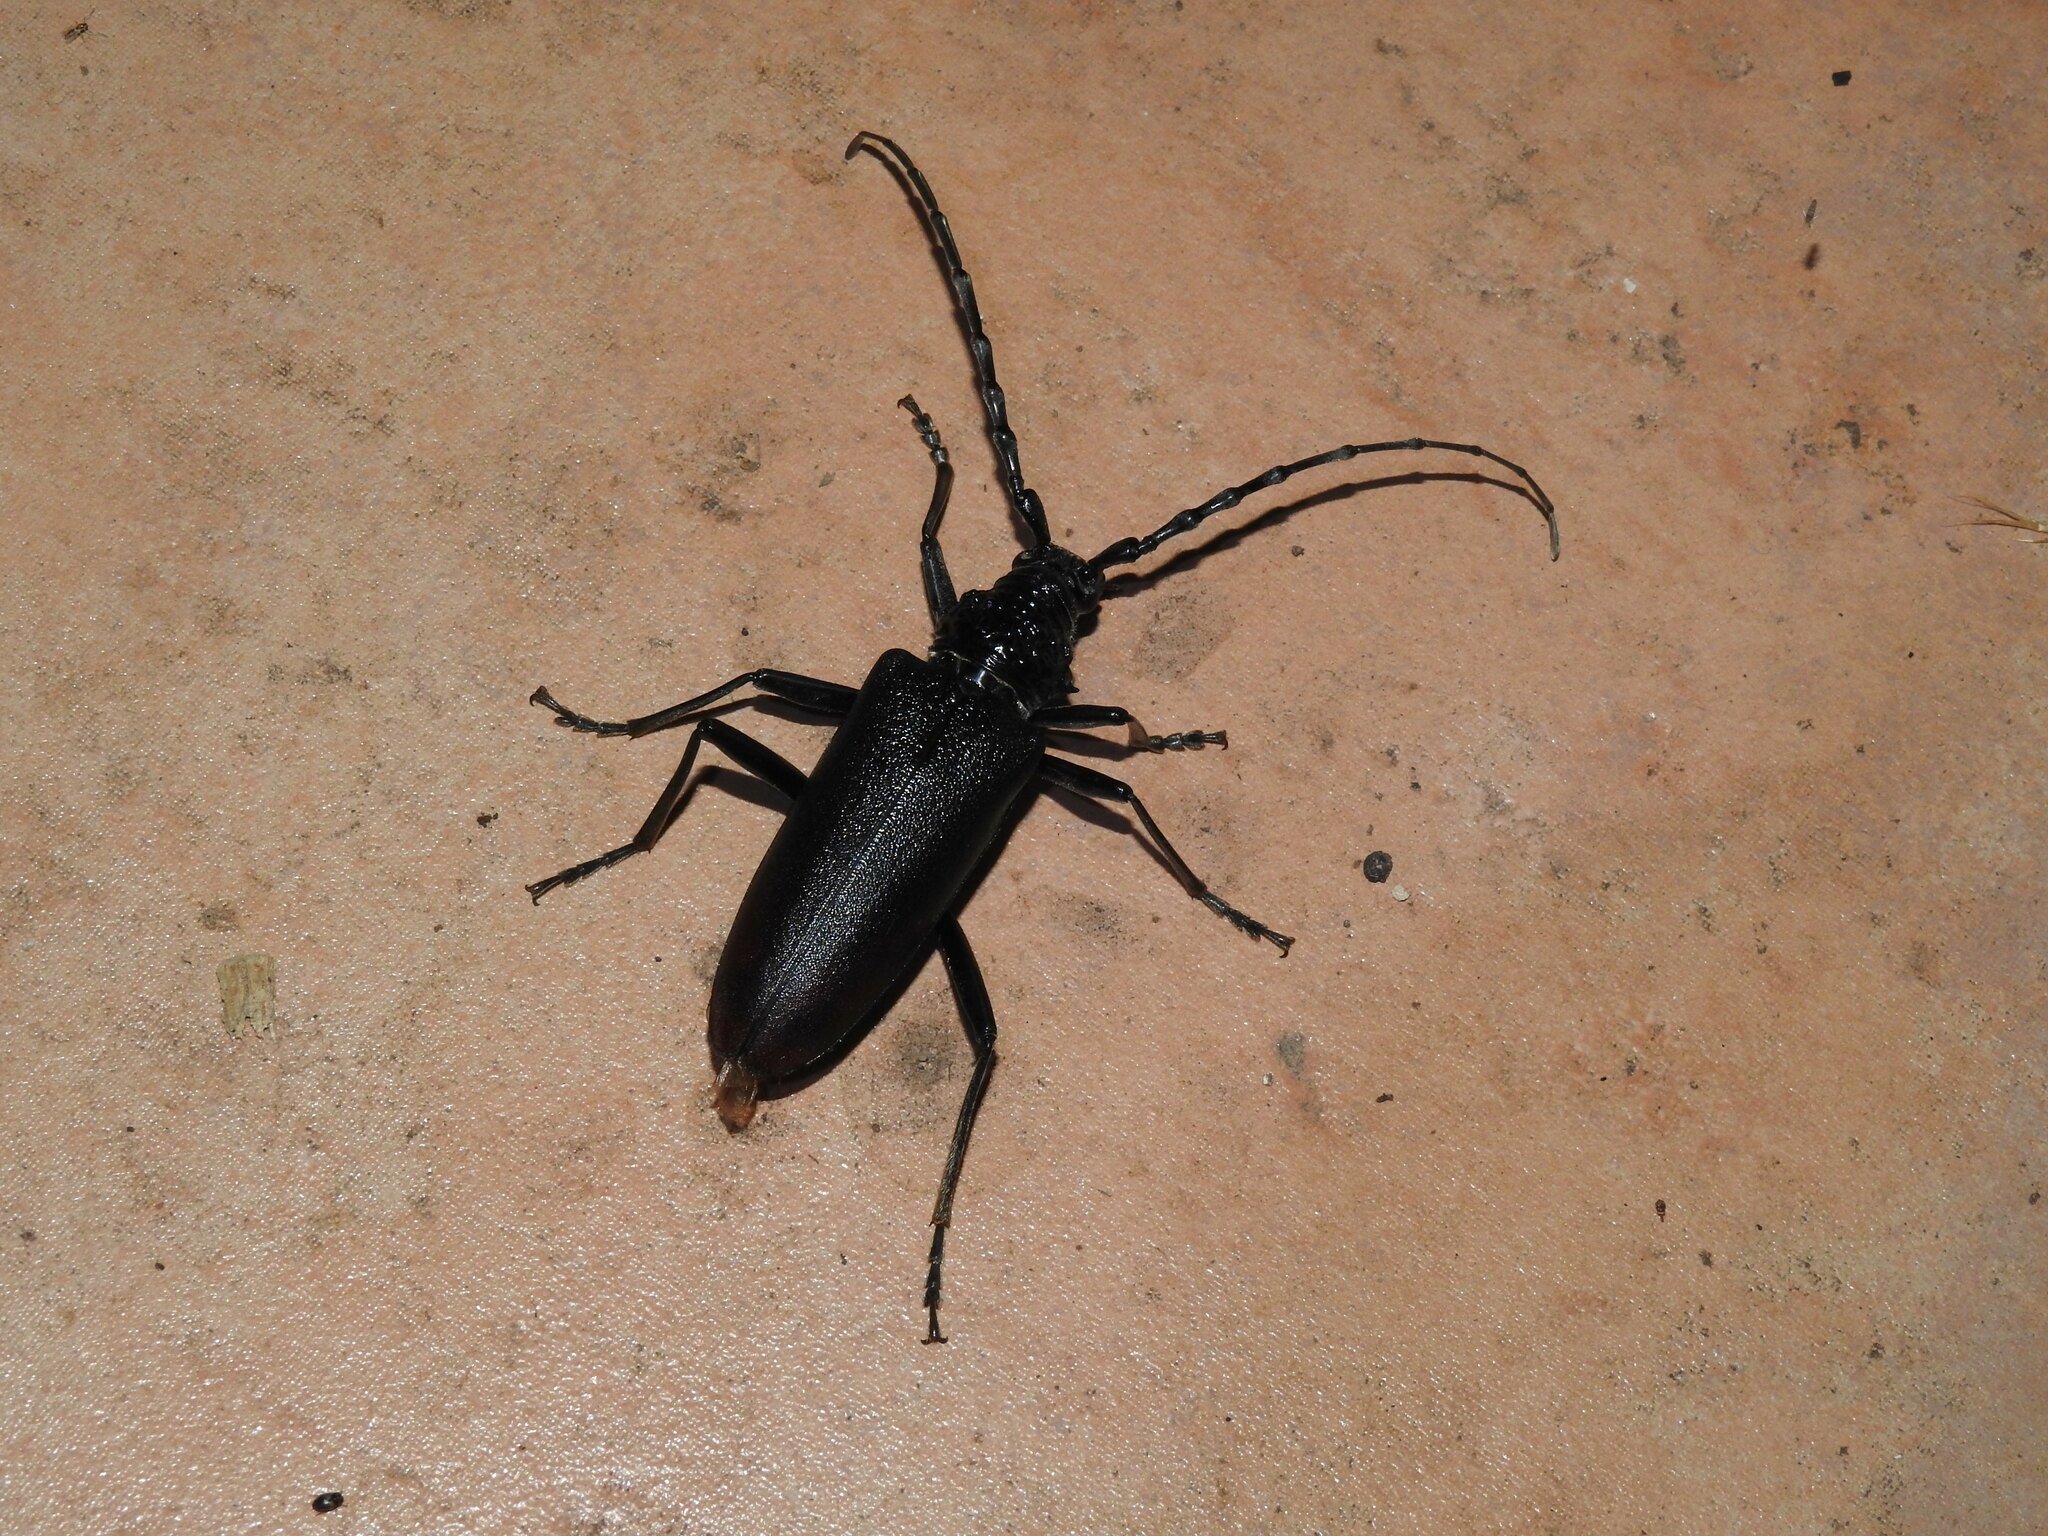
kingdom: Animalia
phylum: Arthropoda
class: Insecta
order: Coleoptera
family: Cerambycidae
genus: Cerambyx
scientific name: Cerambyx cerdo
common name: Cerambyx longicorn
